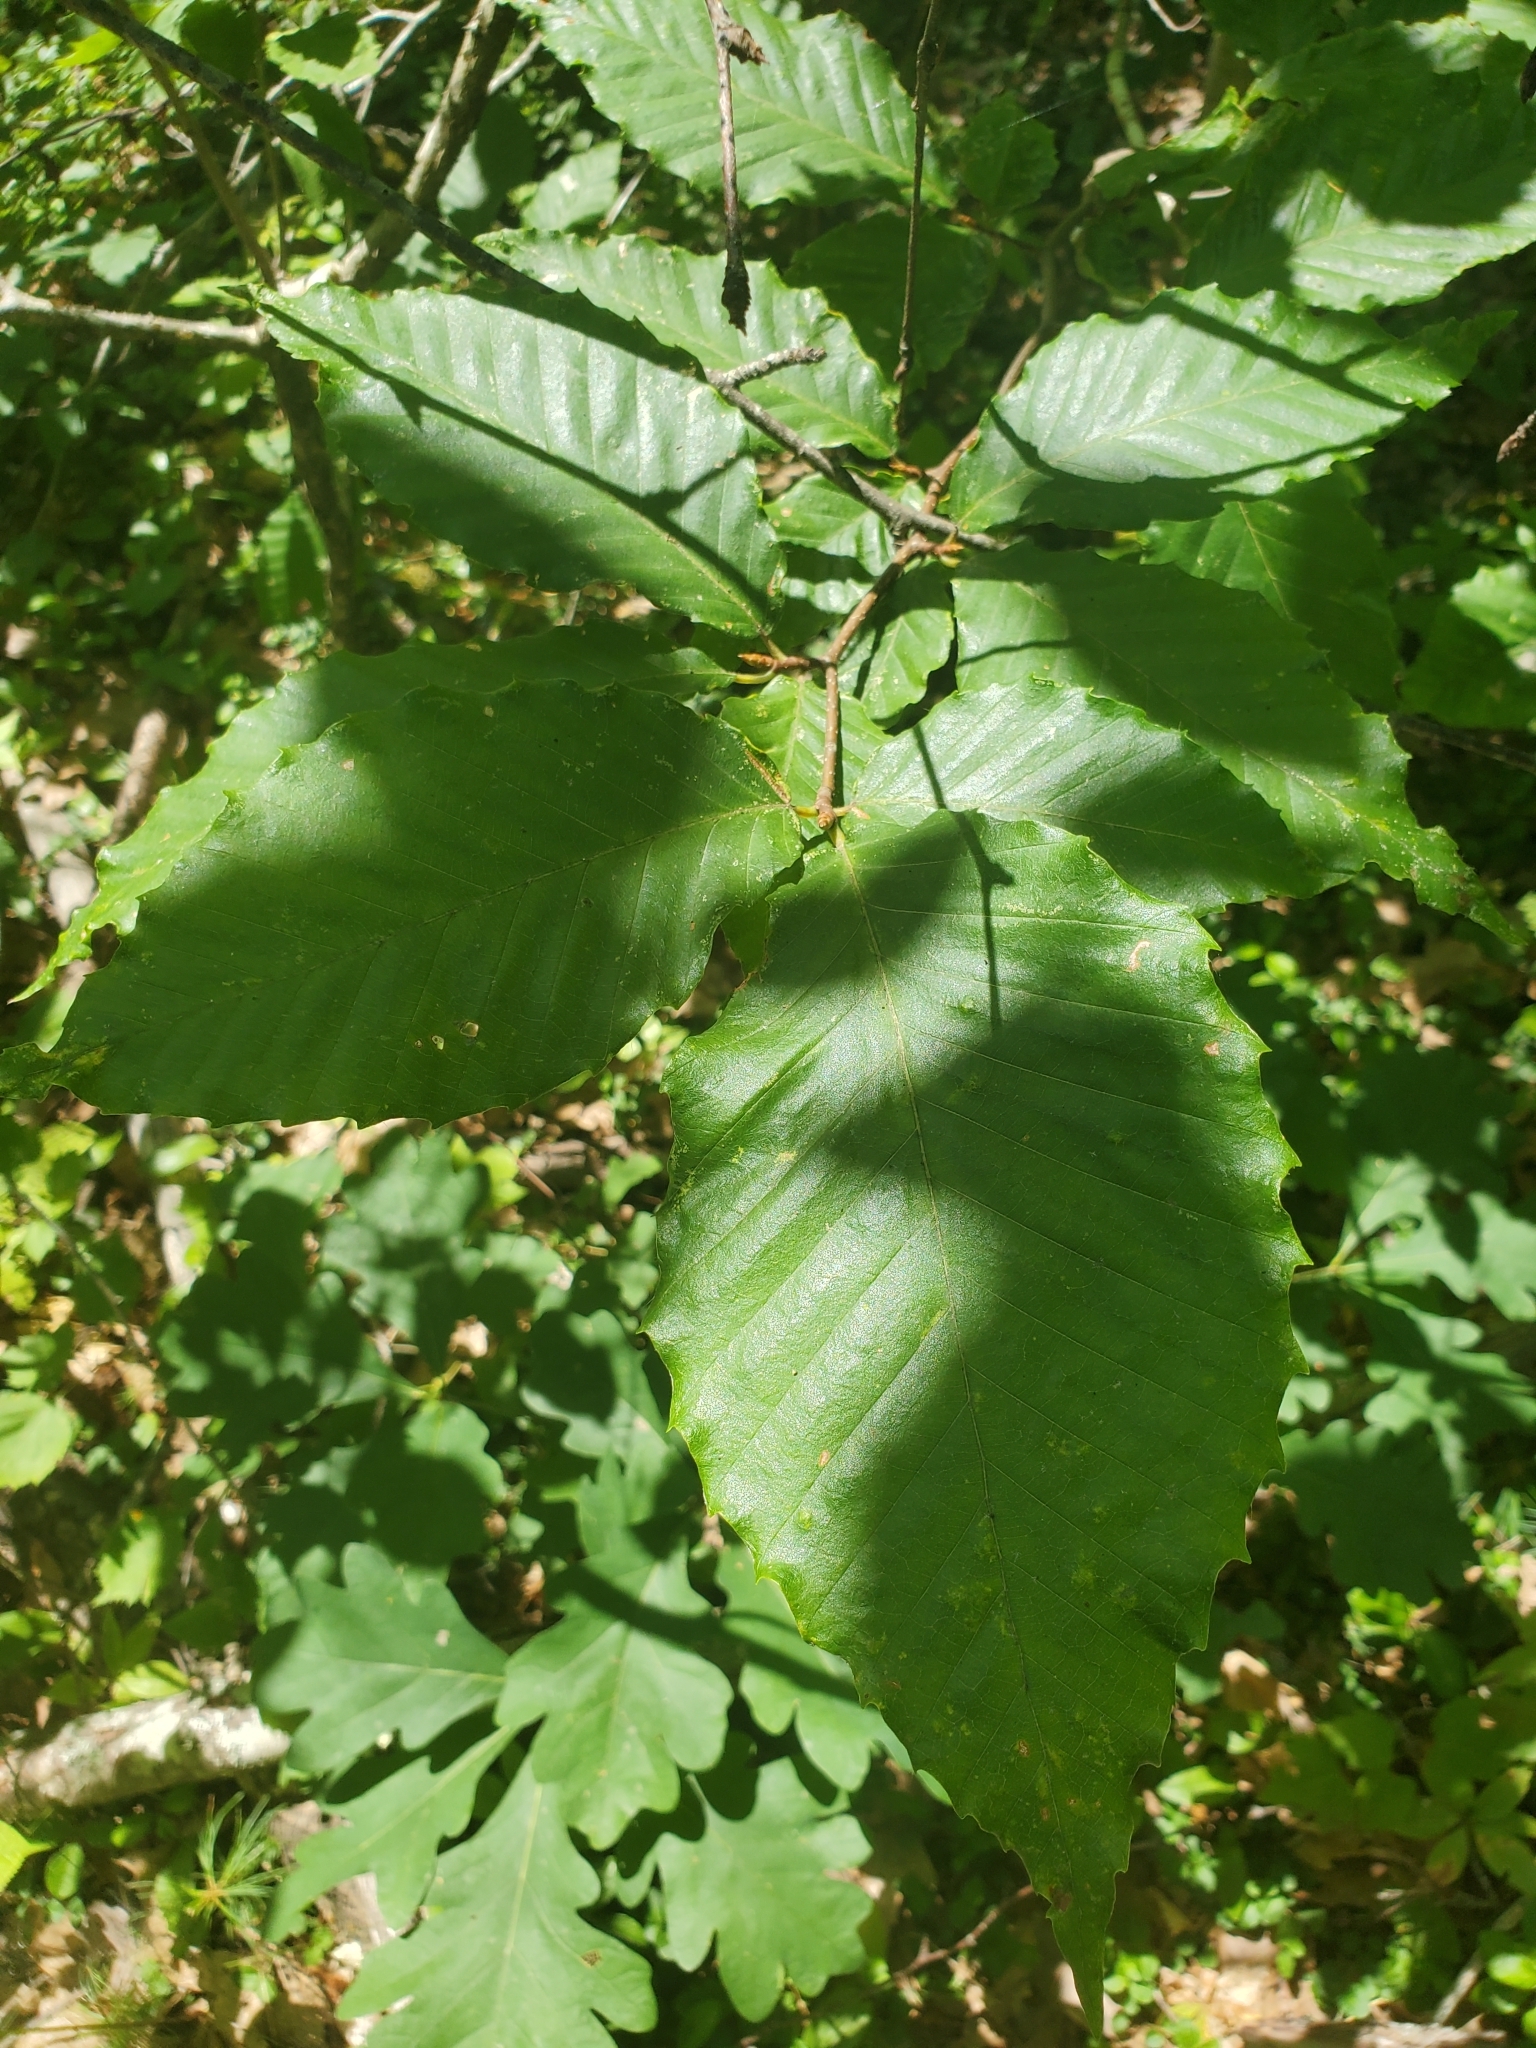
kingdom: Plantae
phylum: Tracheophyta
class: Magnoliopsida
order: Fagales
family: Fagaceae
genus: Fagus
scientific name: Fagus grandifolia
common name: American beech
